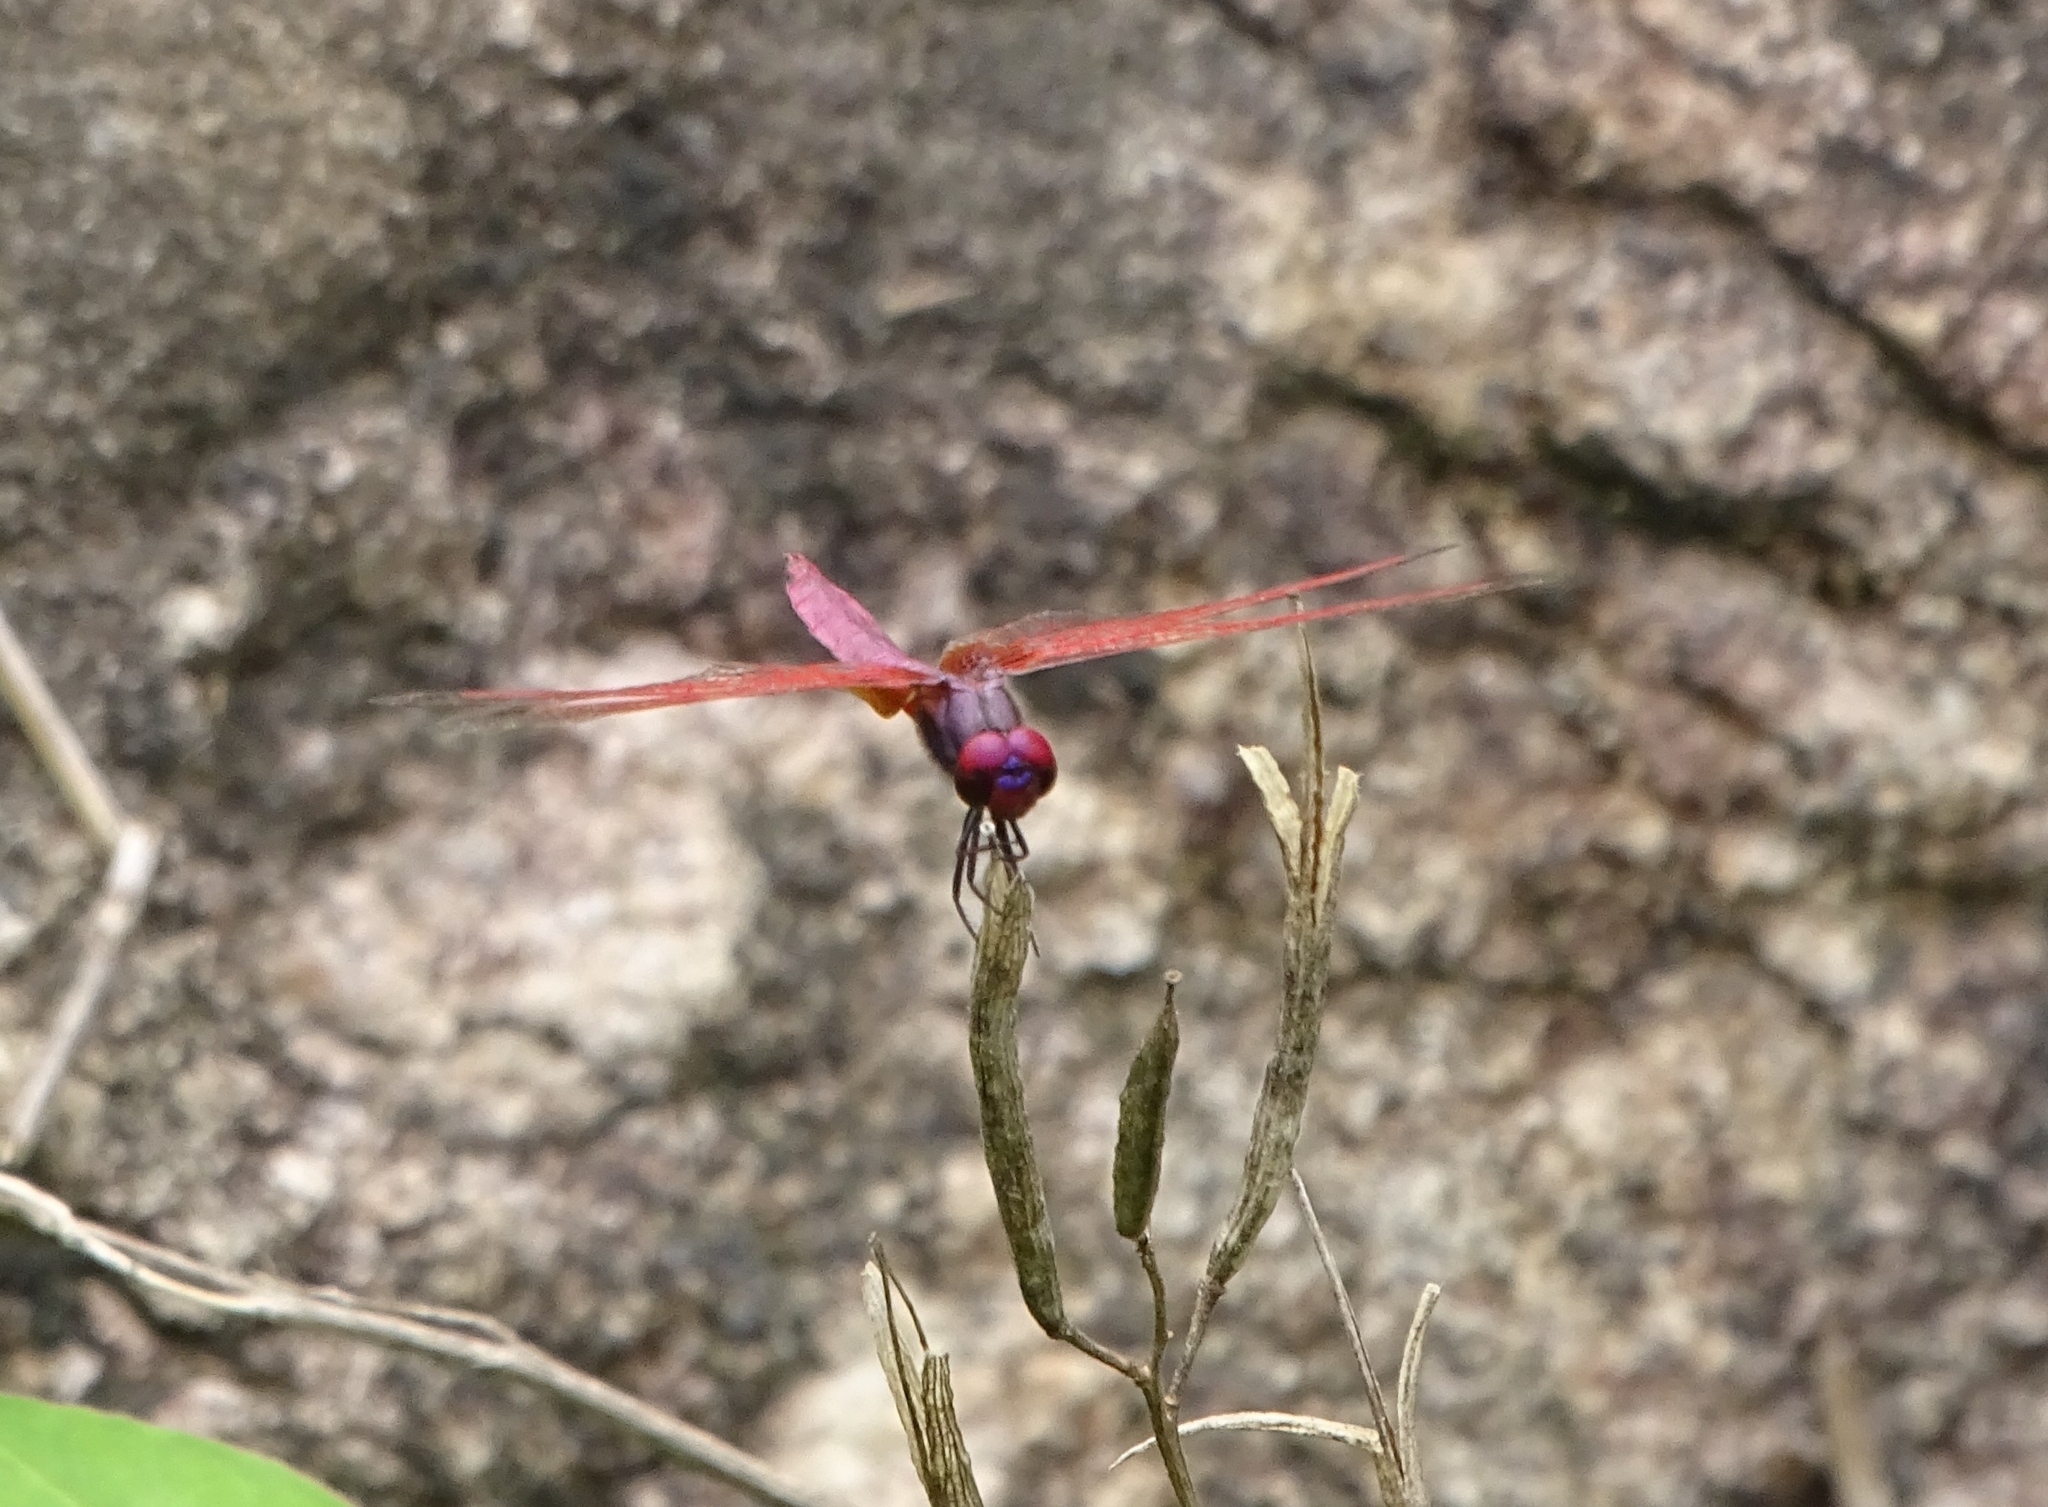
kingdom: Animalia
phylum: Arthropoda
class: Insecta
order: Odonata
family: Libellulidae
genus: Trithemis
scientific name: Trithemis aurora
